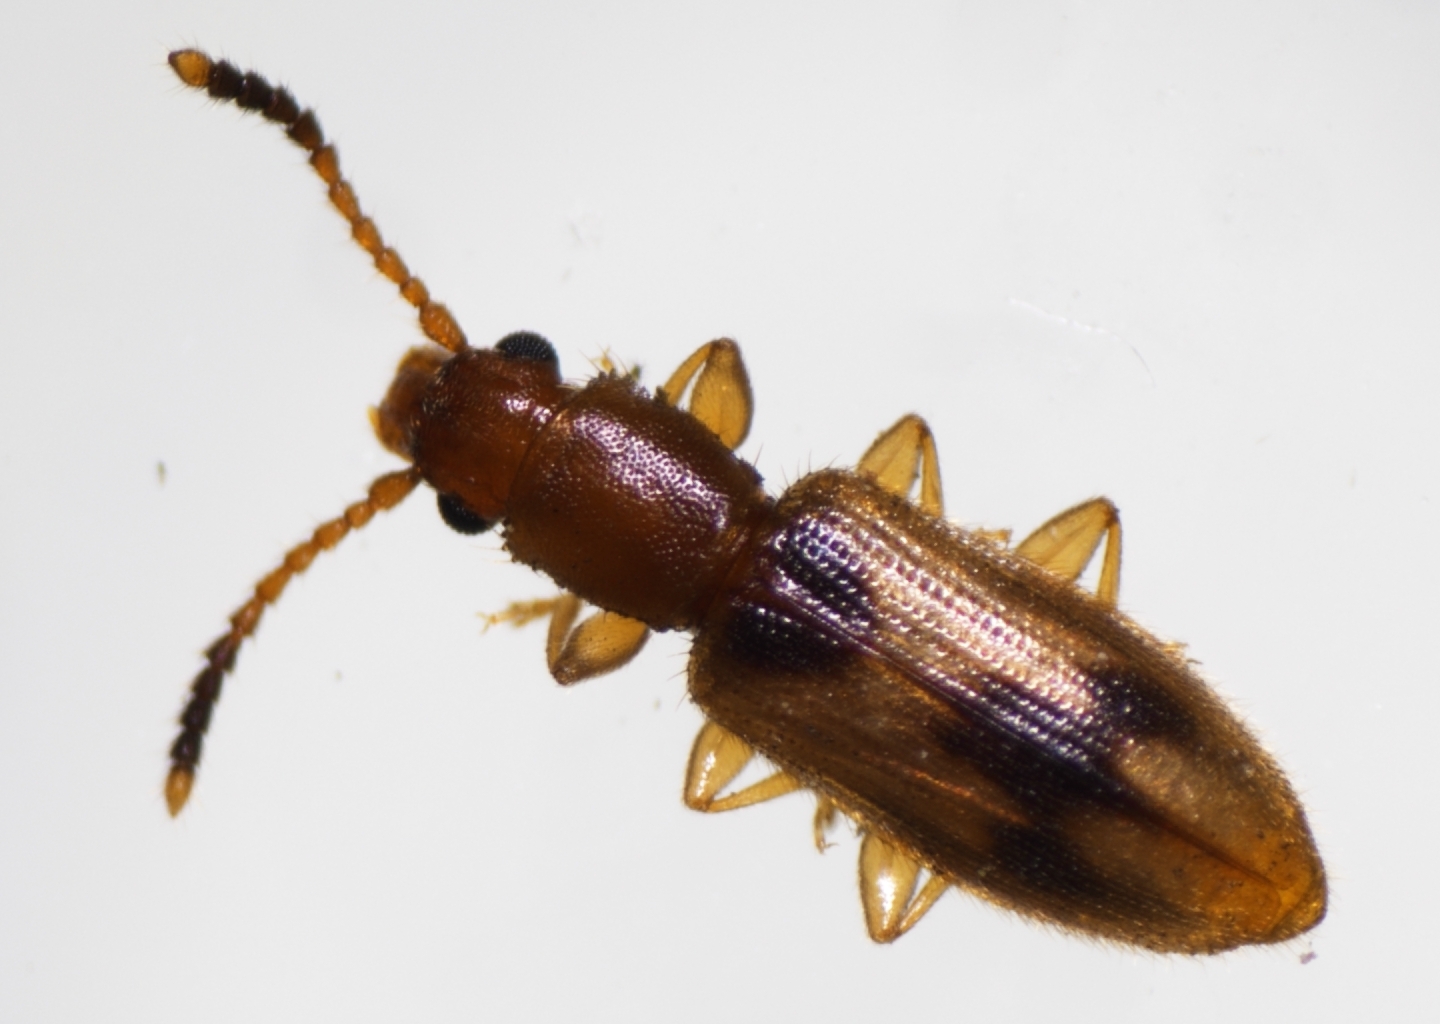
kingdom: Animalia
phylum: Arthropoda
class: Insecta
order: Coleoptera
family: Silvanidae
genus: Cryptamorpha
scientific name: Cryptamorpha desjardinsi
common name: Cryptamorpha
